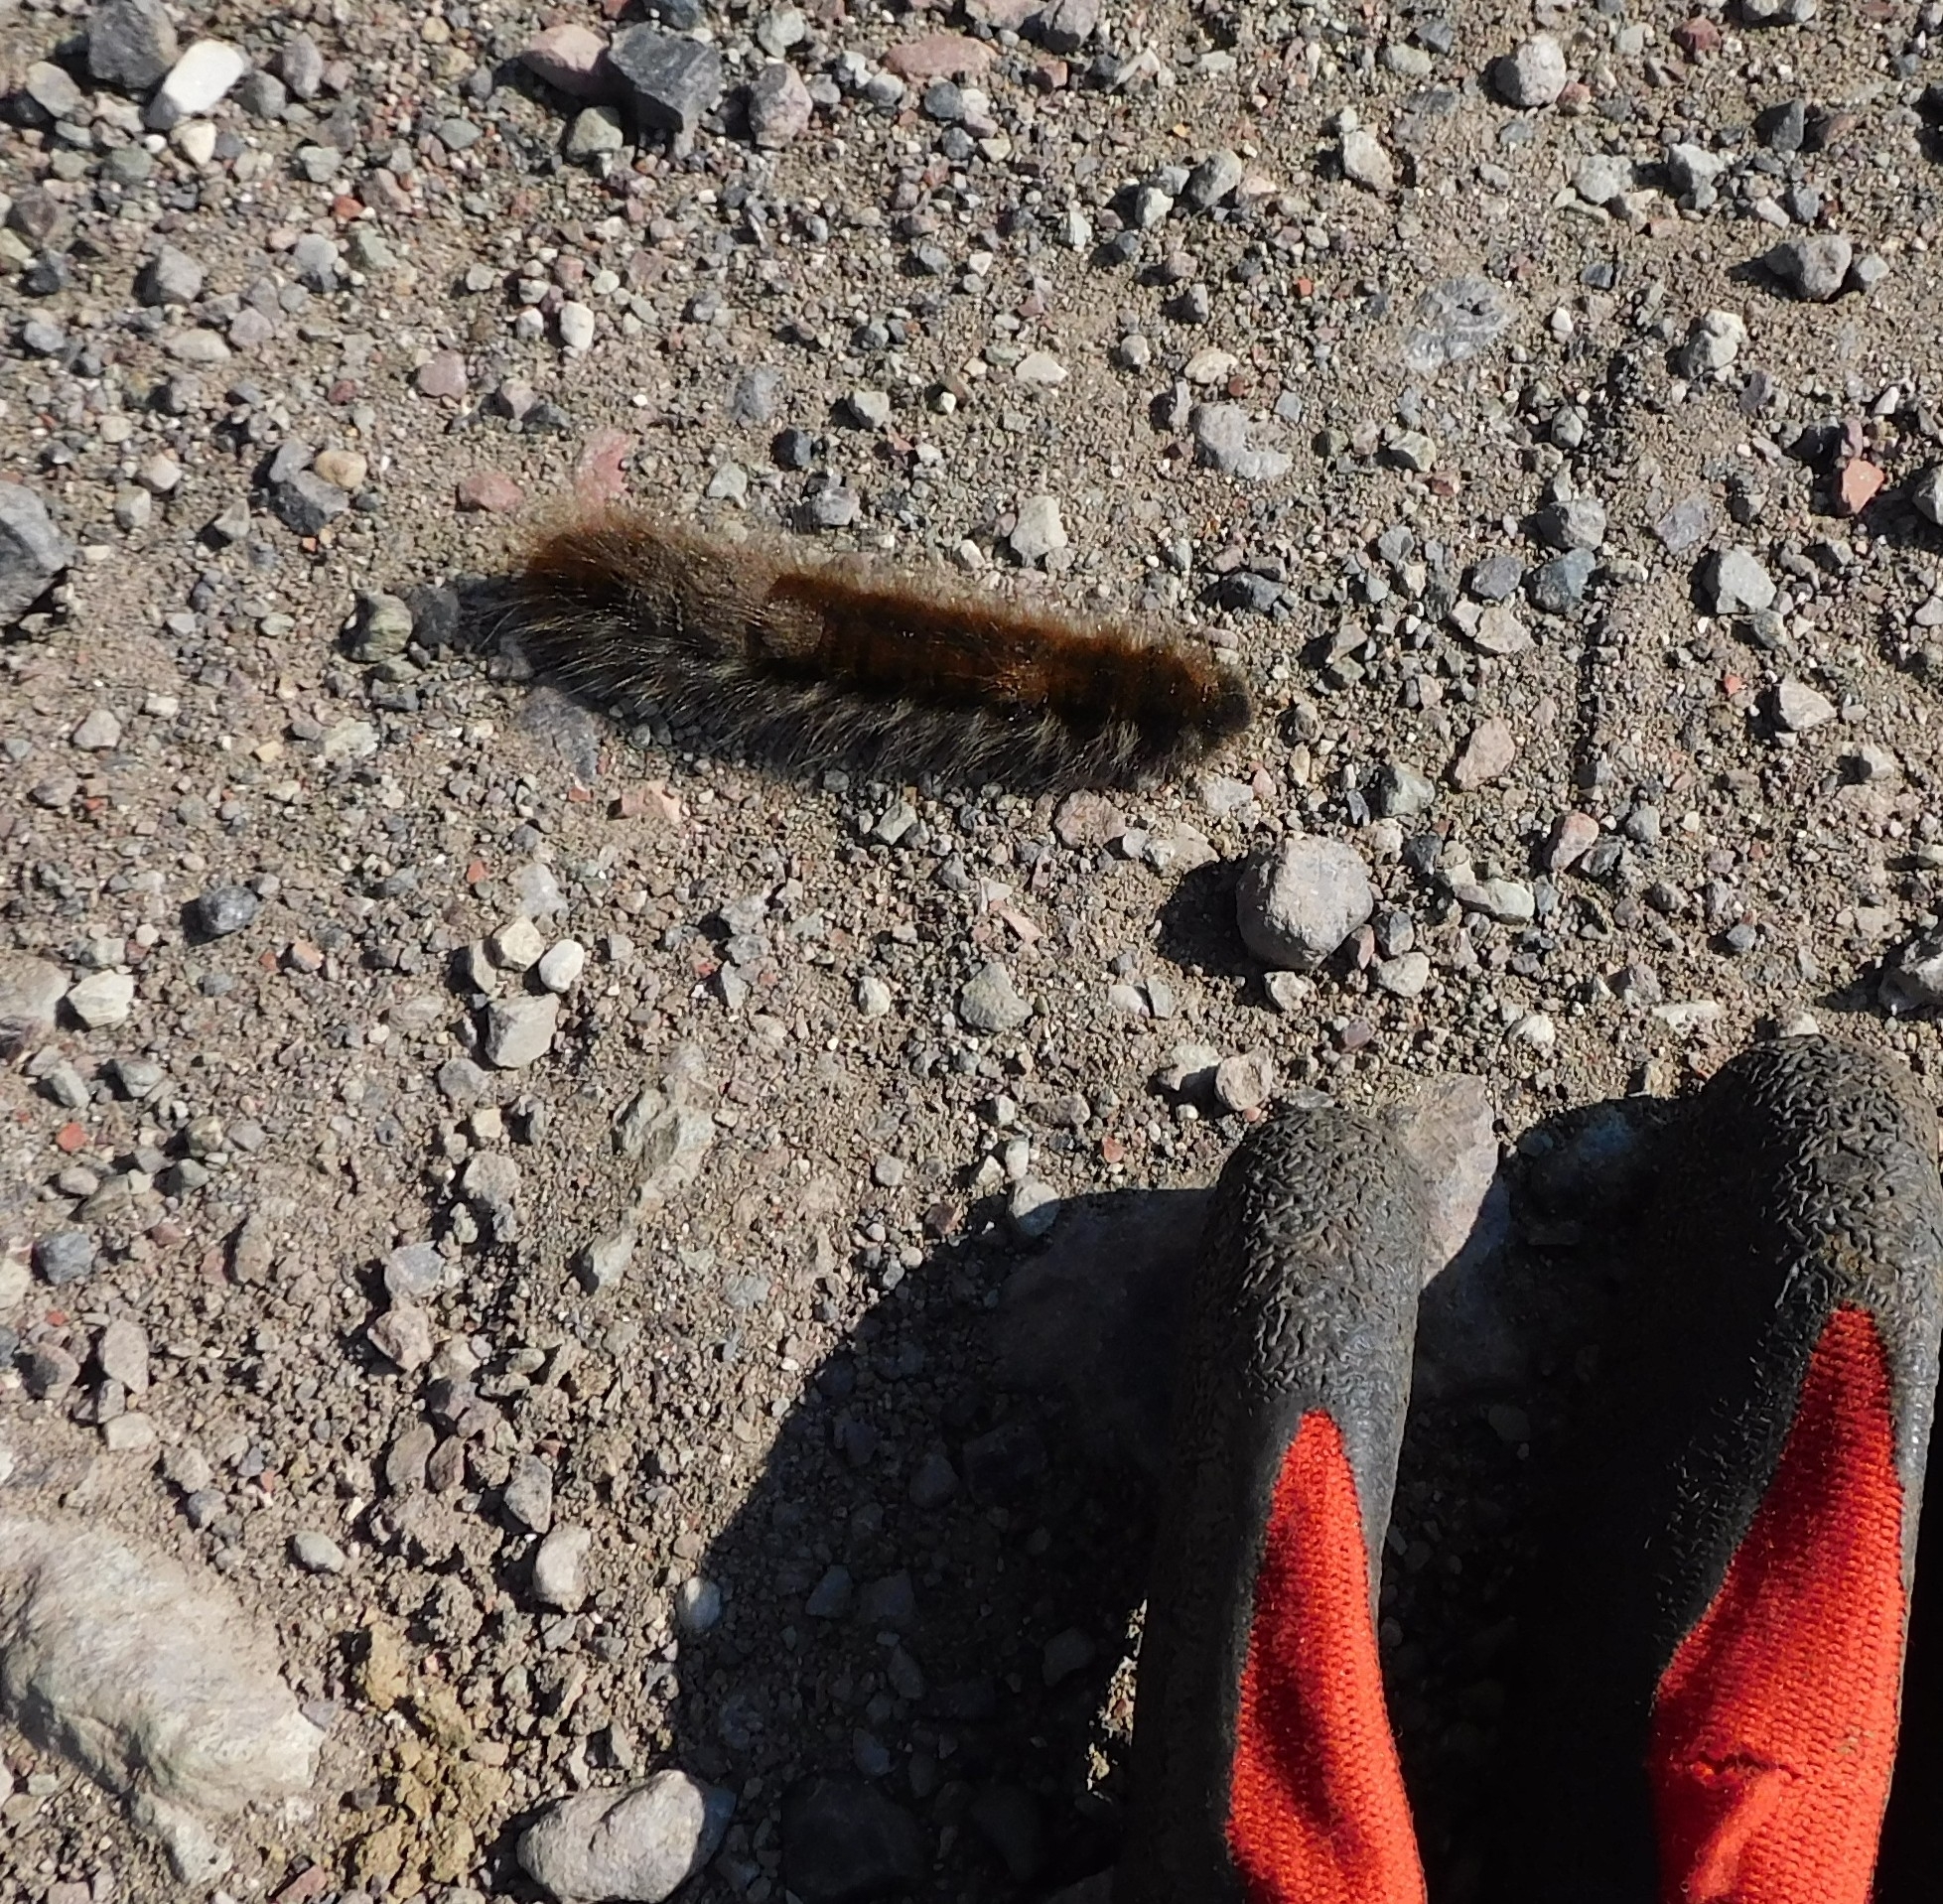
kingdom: Animalia
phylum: Arthropoda
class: Insecta
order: Lepidoptera
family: Lasiocampidae
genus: Macrothylacia
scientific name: Macrothylacia rubi
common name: Fox moth
